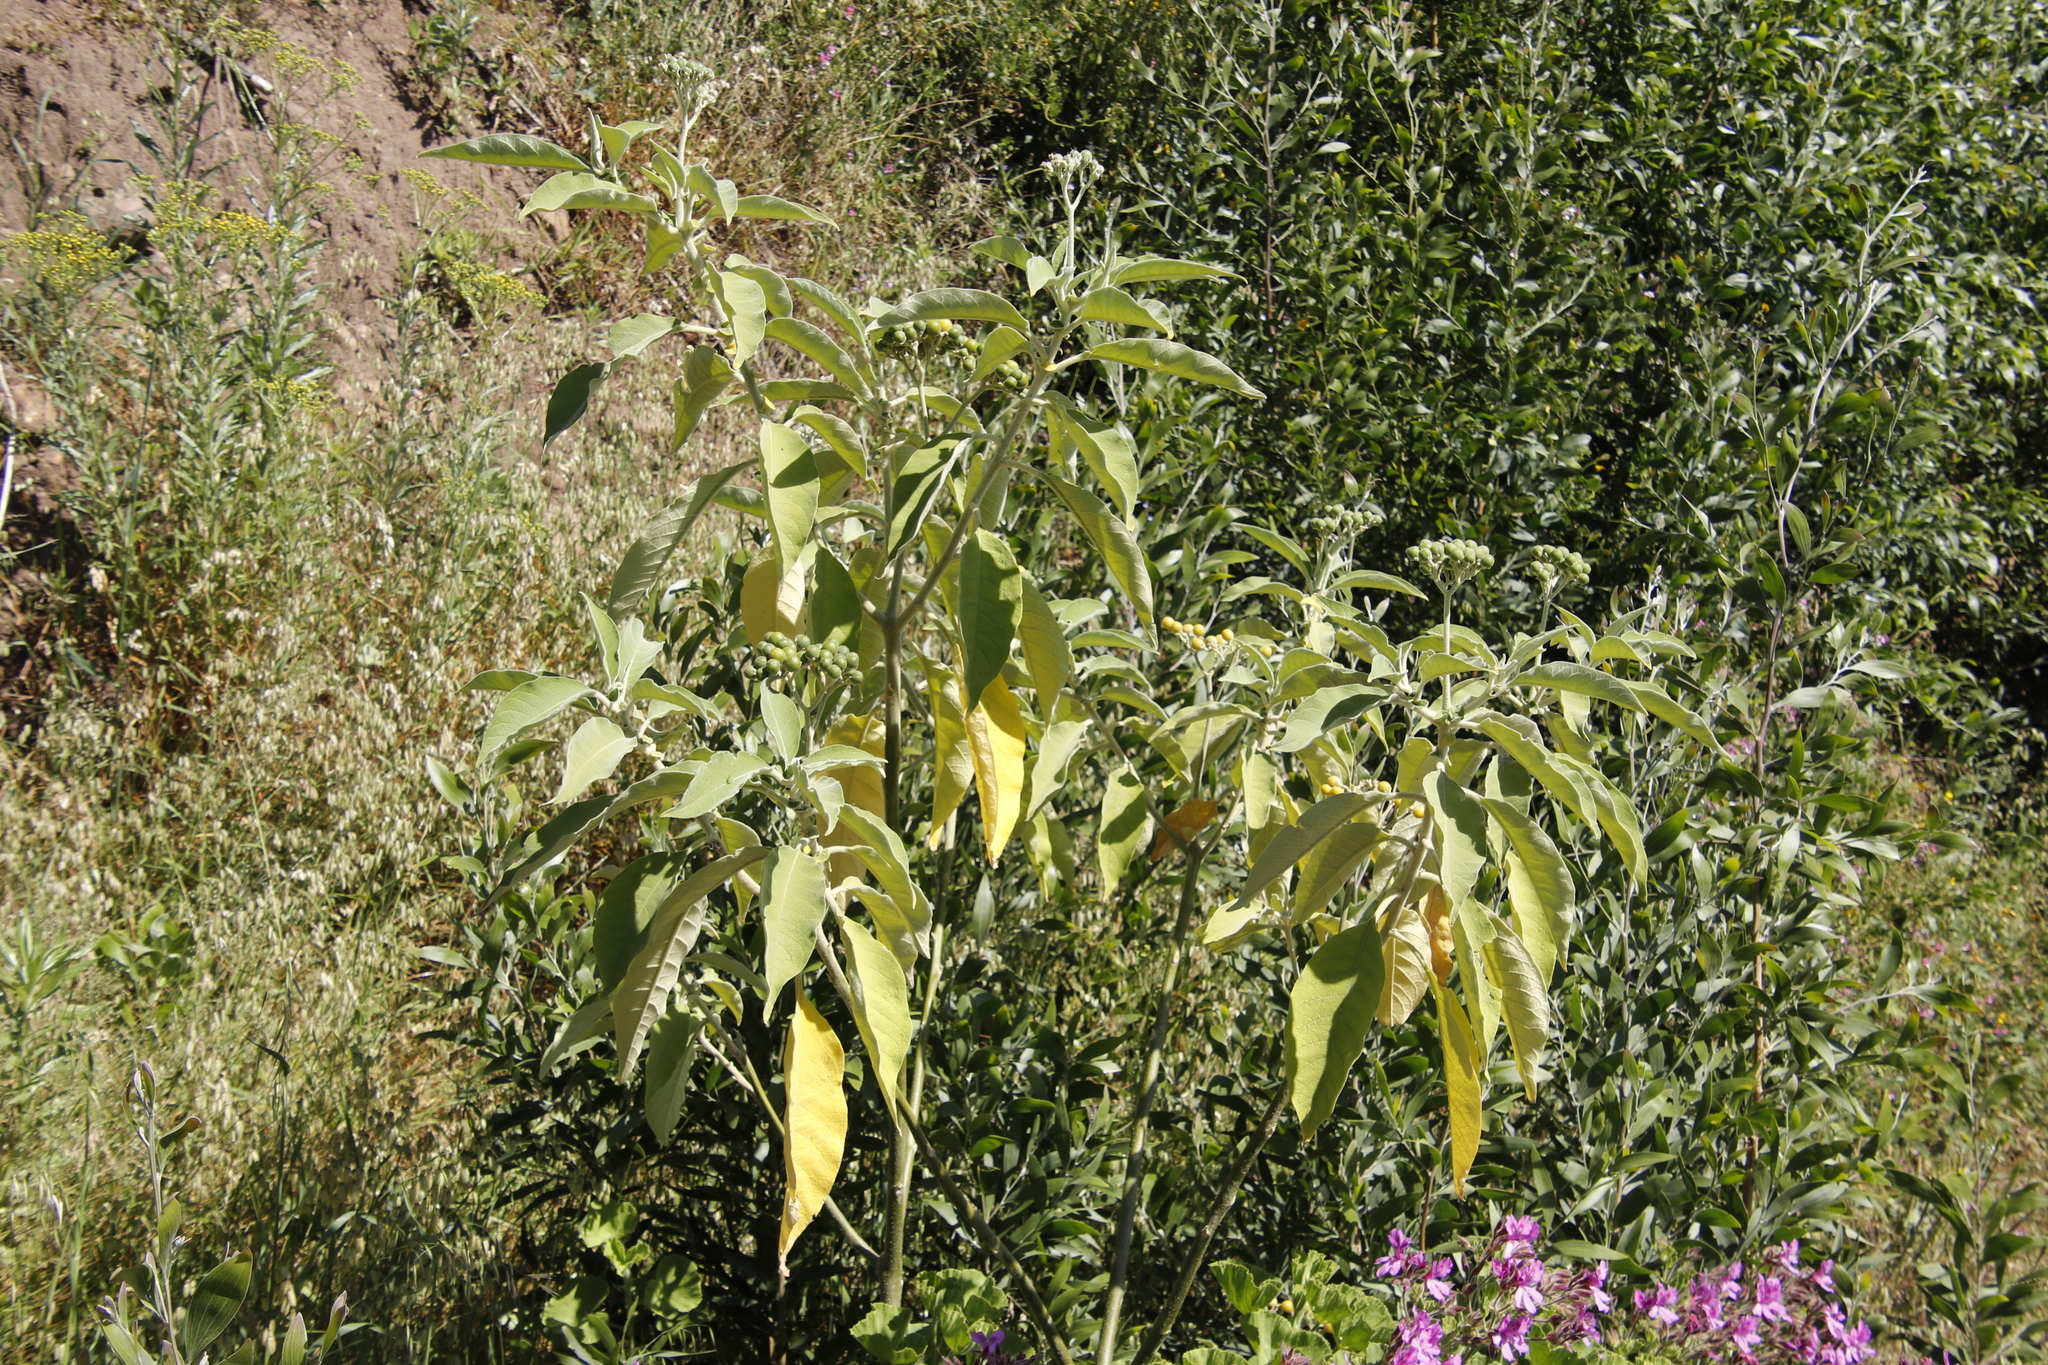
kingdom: Plantae
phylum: Tracheophyta
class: Magnoliopsida
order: Solanales
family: Solanaceae
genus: Solanum
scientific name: Solanum mauritianum
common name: Earleaf nightshade
